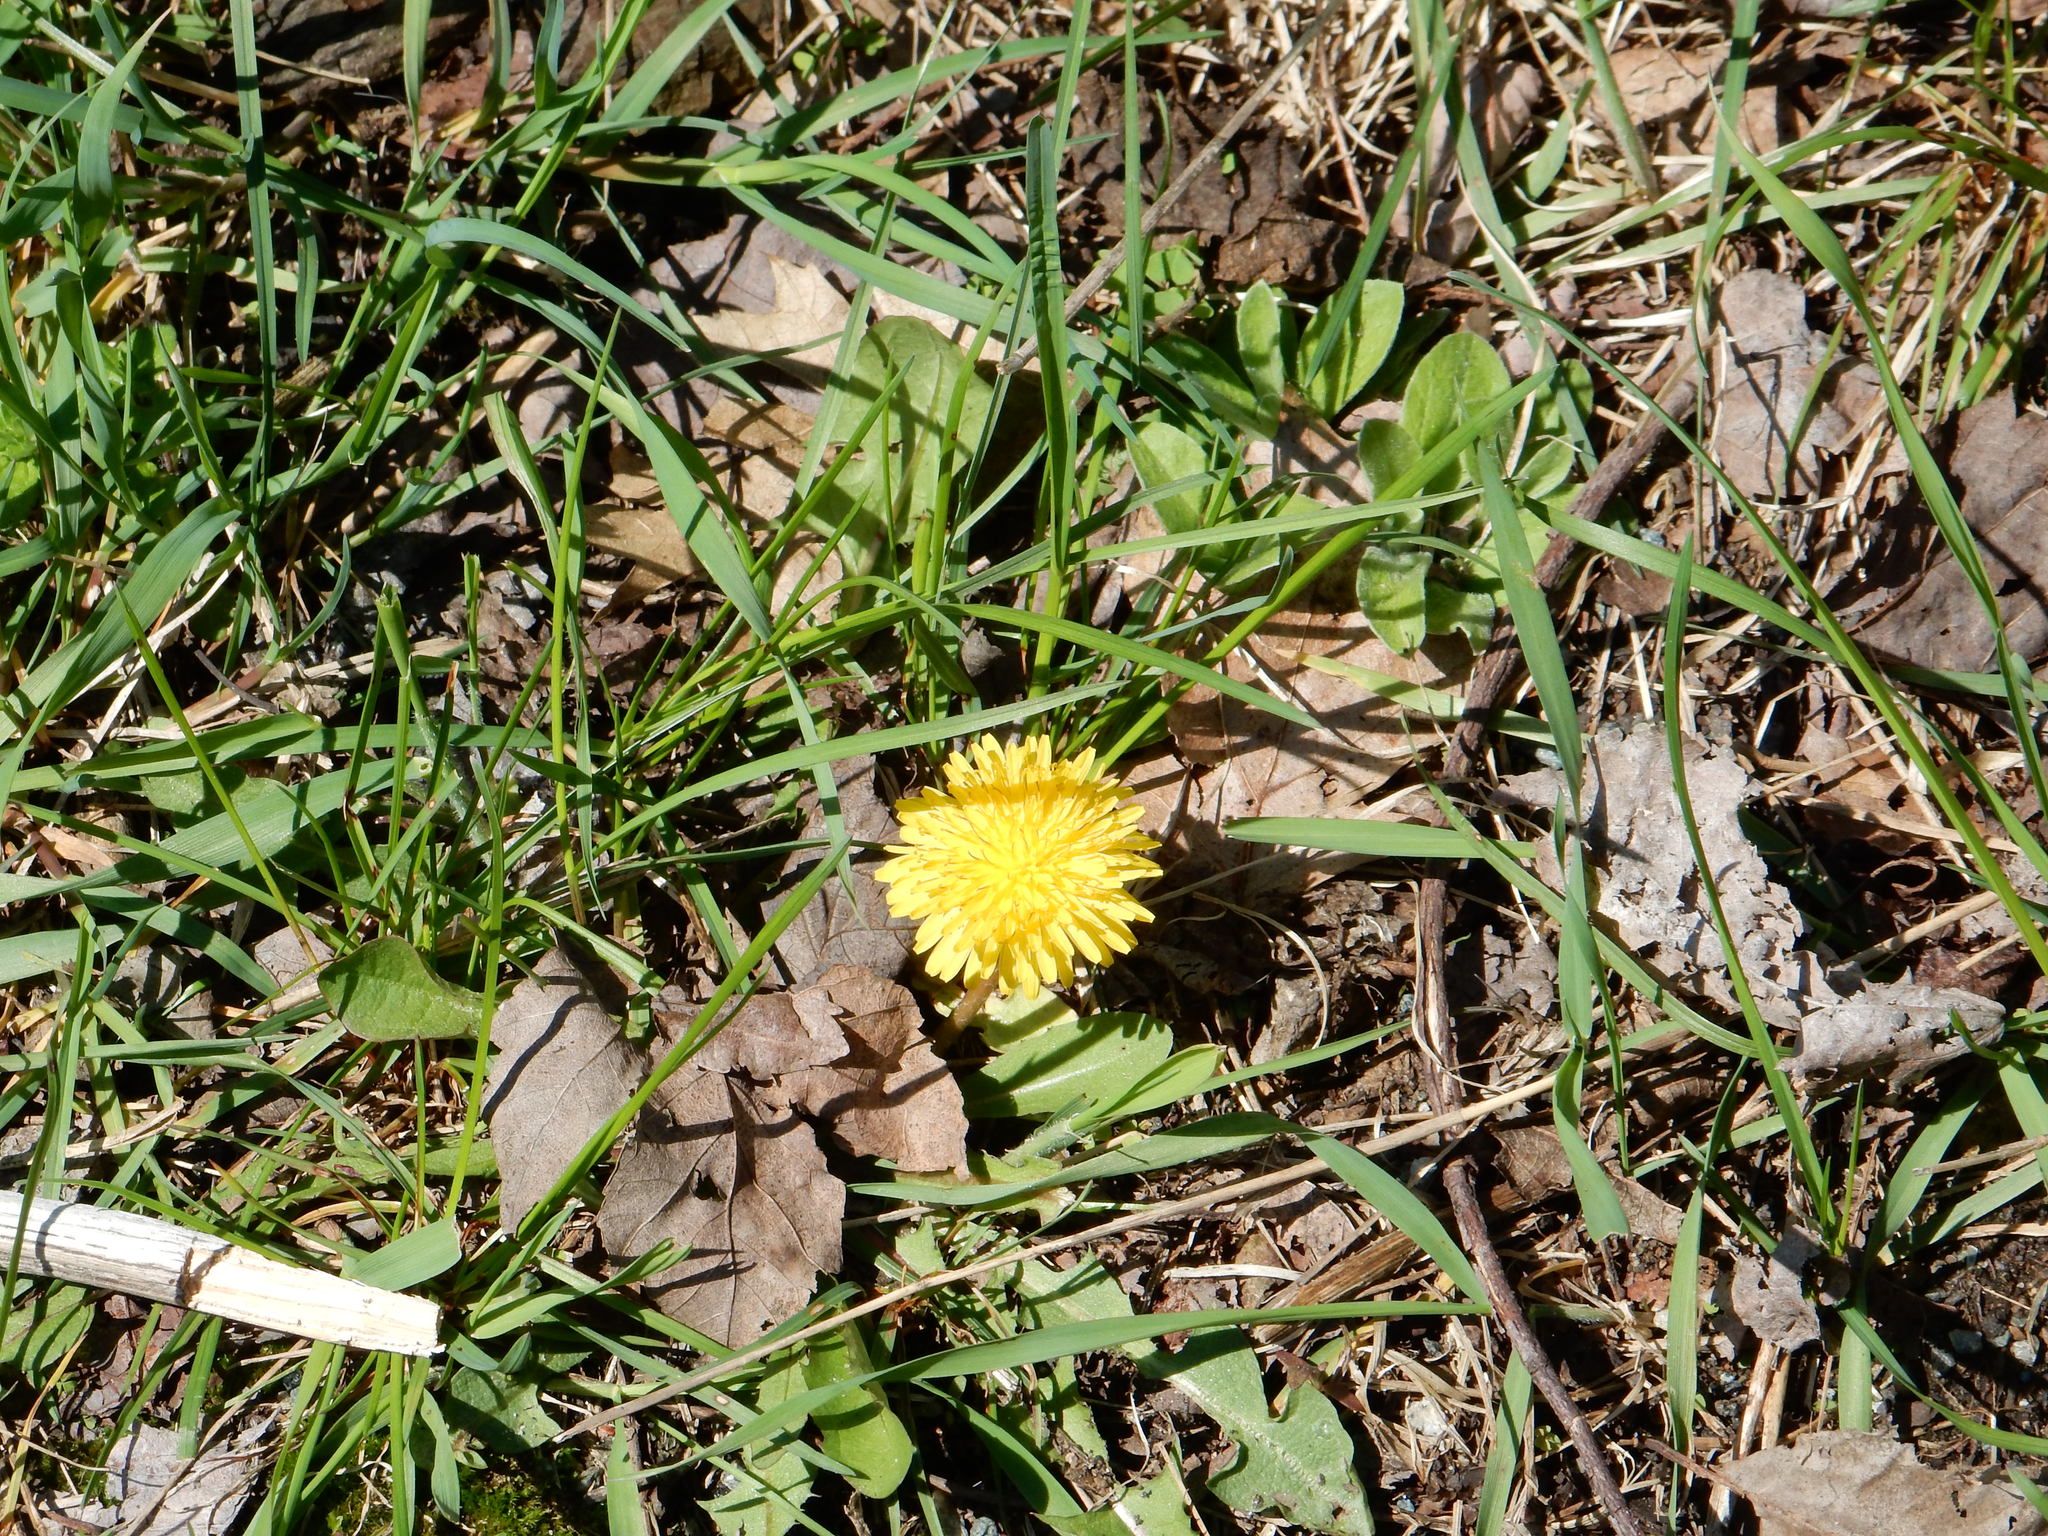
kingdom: Plantae
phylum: Tracheophyta
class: Magnoliopsida
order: Asterales
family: Asteraceae
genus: Taraxacum
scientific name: Taraxacum officinale
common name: Common dandelion
